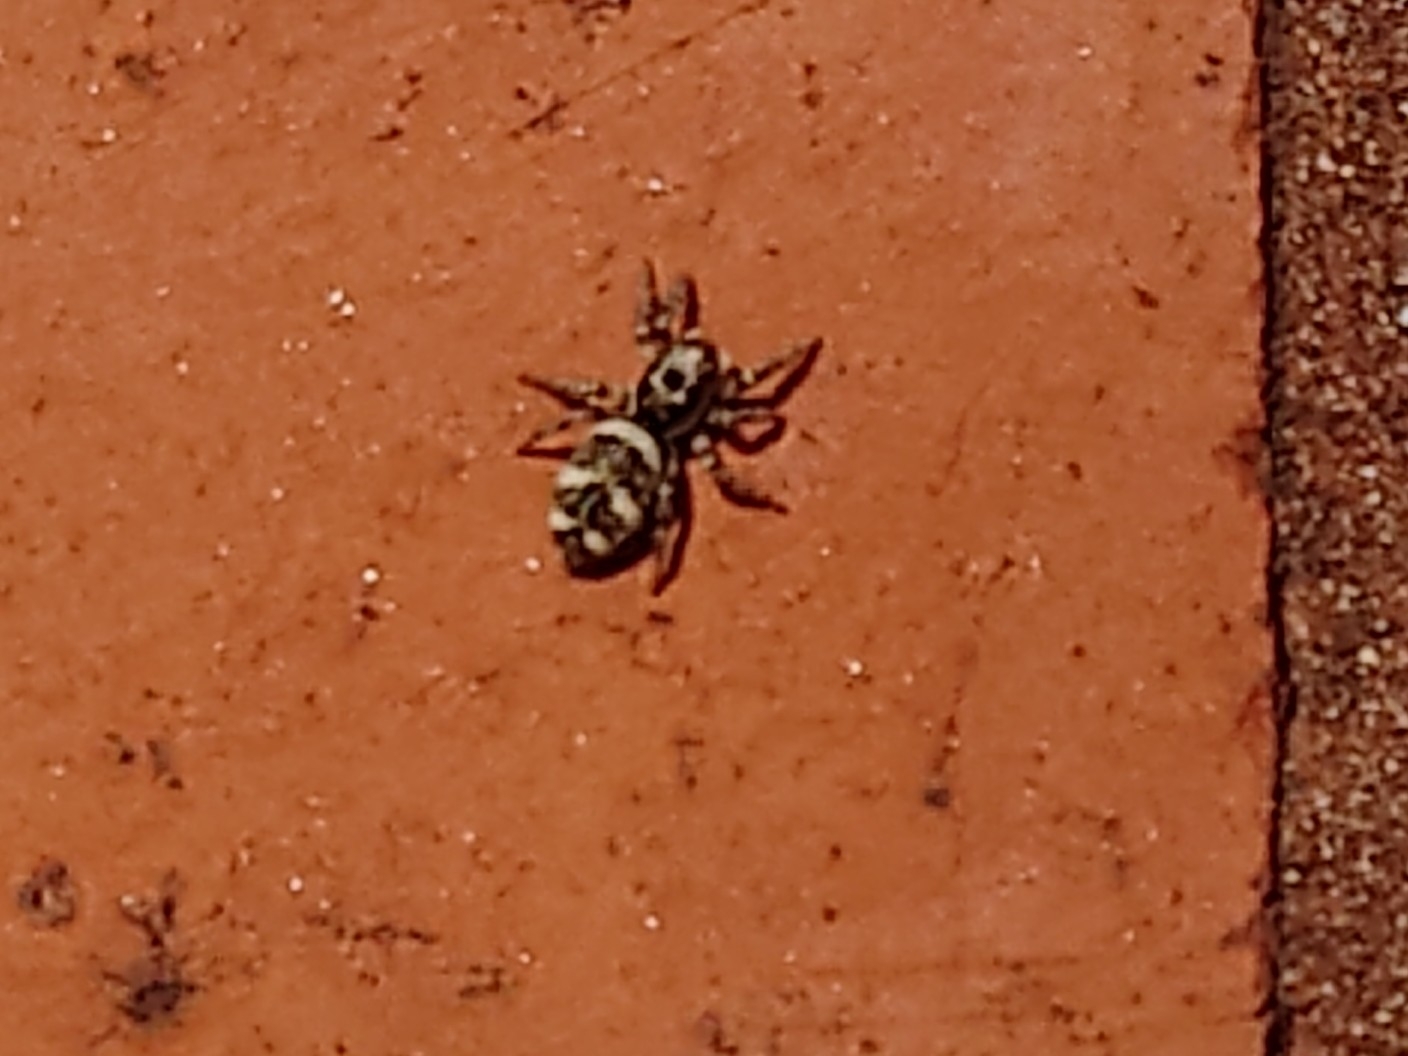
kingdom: Animalia
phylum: Arthropoda
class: Arachnida
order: Araneae
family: Salticidae
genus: Salticus
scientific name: Salticus scenicus
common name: Zebra jumper
